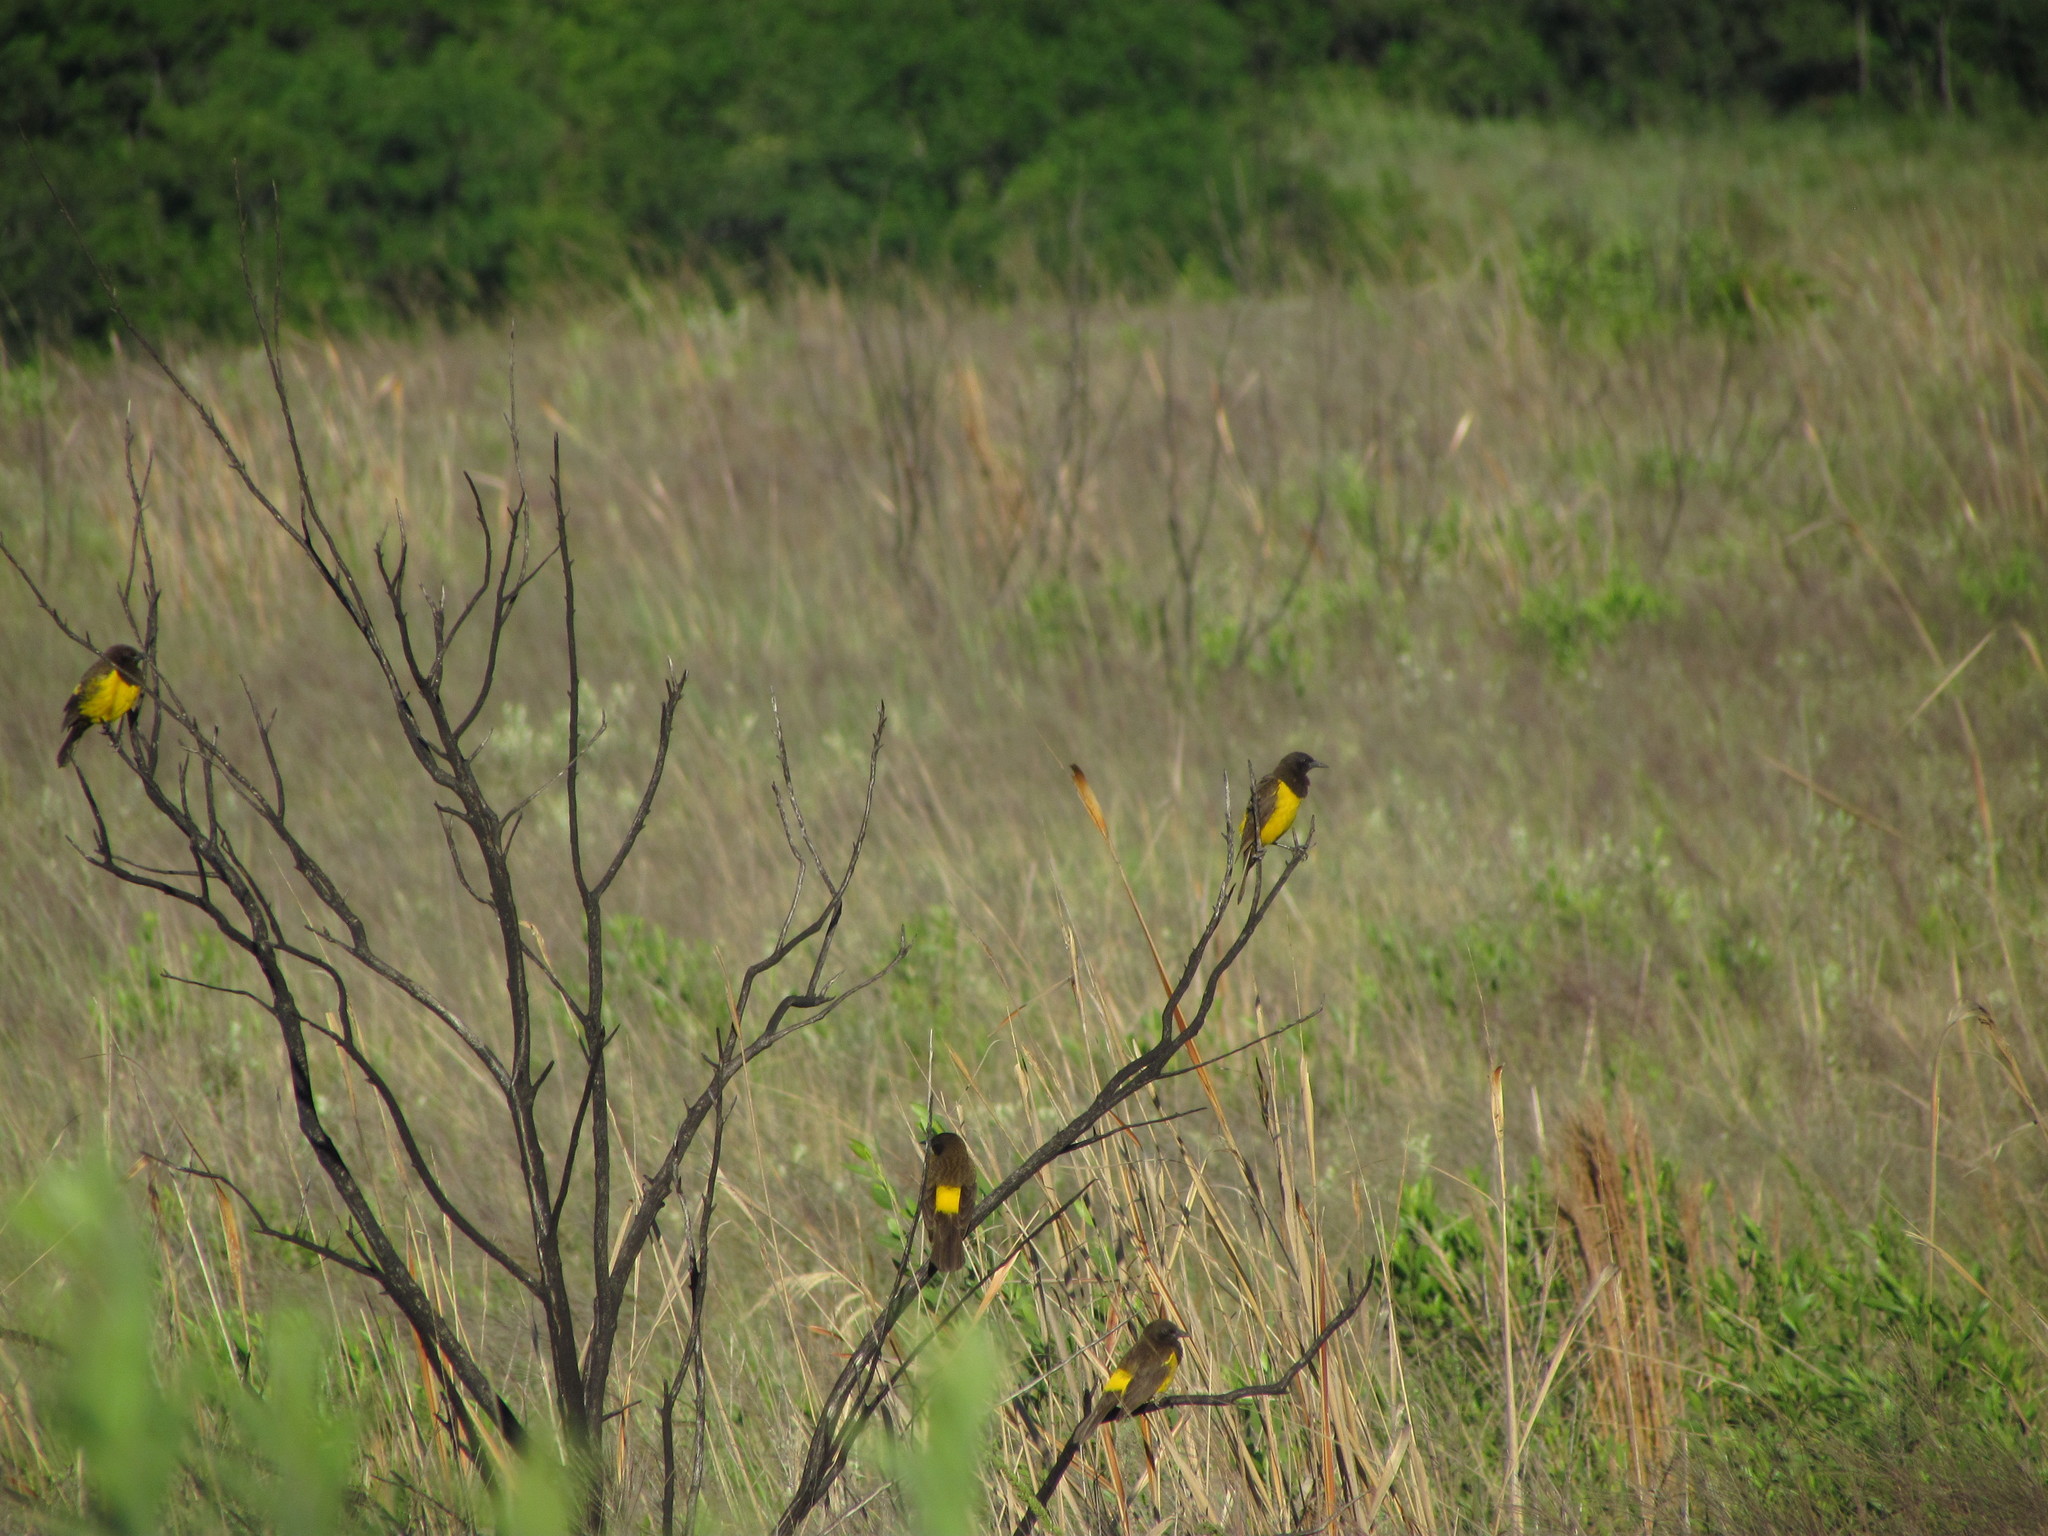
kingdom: Animalia
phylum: Chordata
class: Aves
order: Passeriformes
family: Icteridae
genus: Pseudoleistes
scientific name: Pseudoleistes guirahuro
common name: Yellow-rumped marshbird
